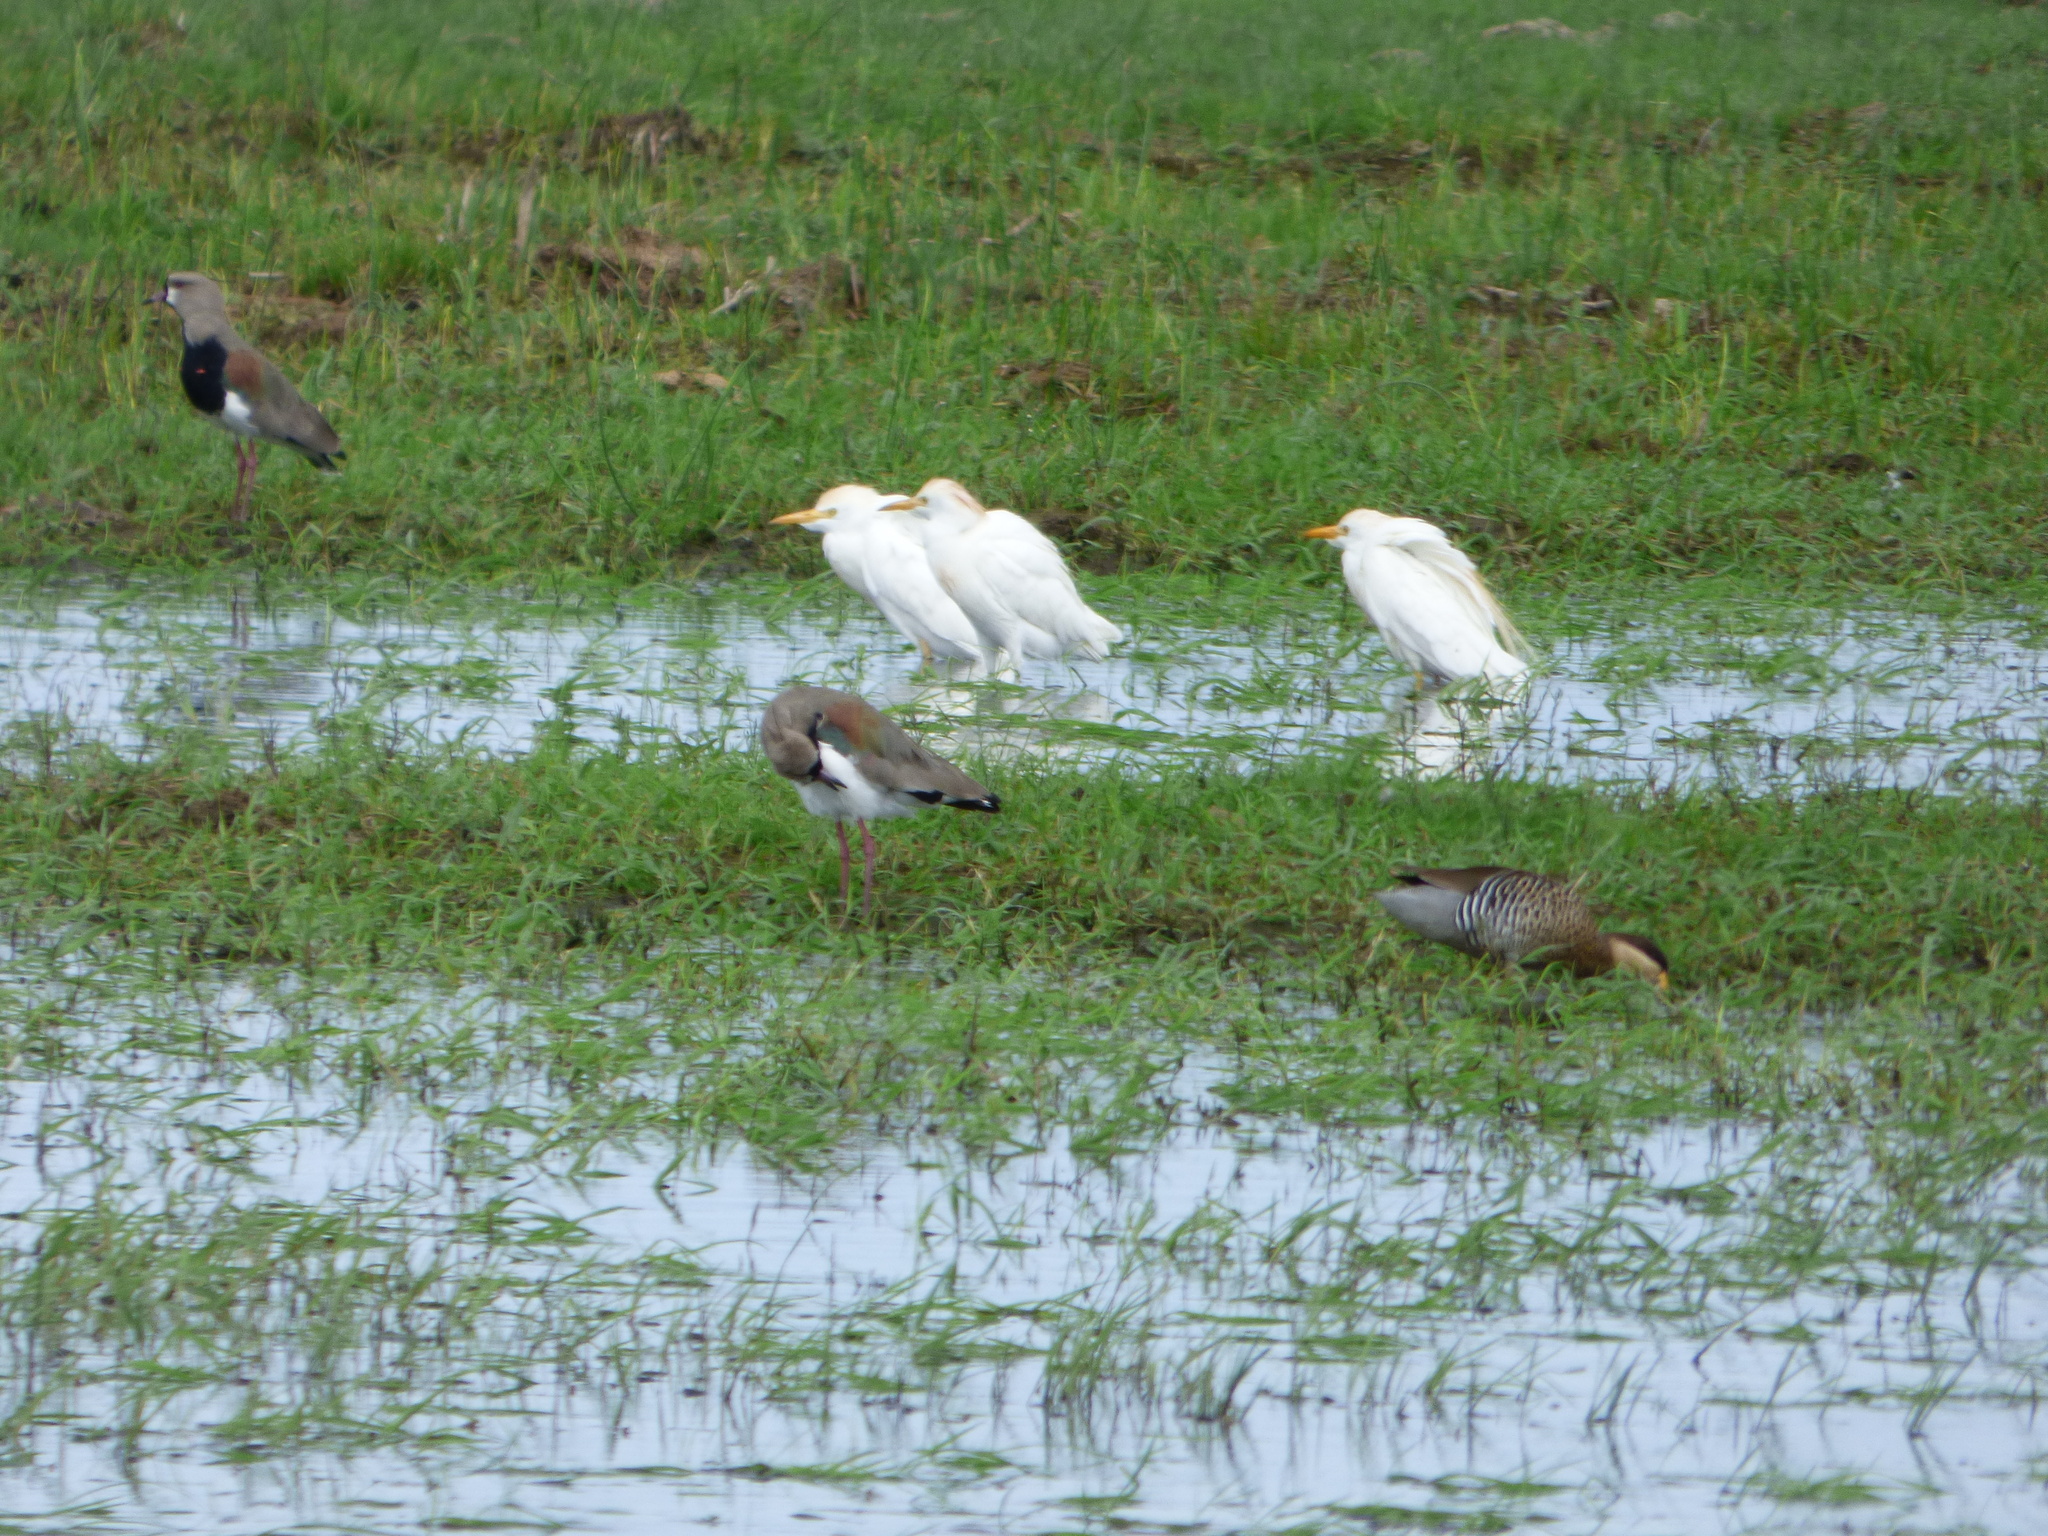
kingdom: Animalia
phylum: Chordata
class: Aves
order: Pelecaniformes
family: Ardeidae
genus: Bubulcus
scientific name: Bubulcus ibis
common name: Cattle egret
